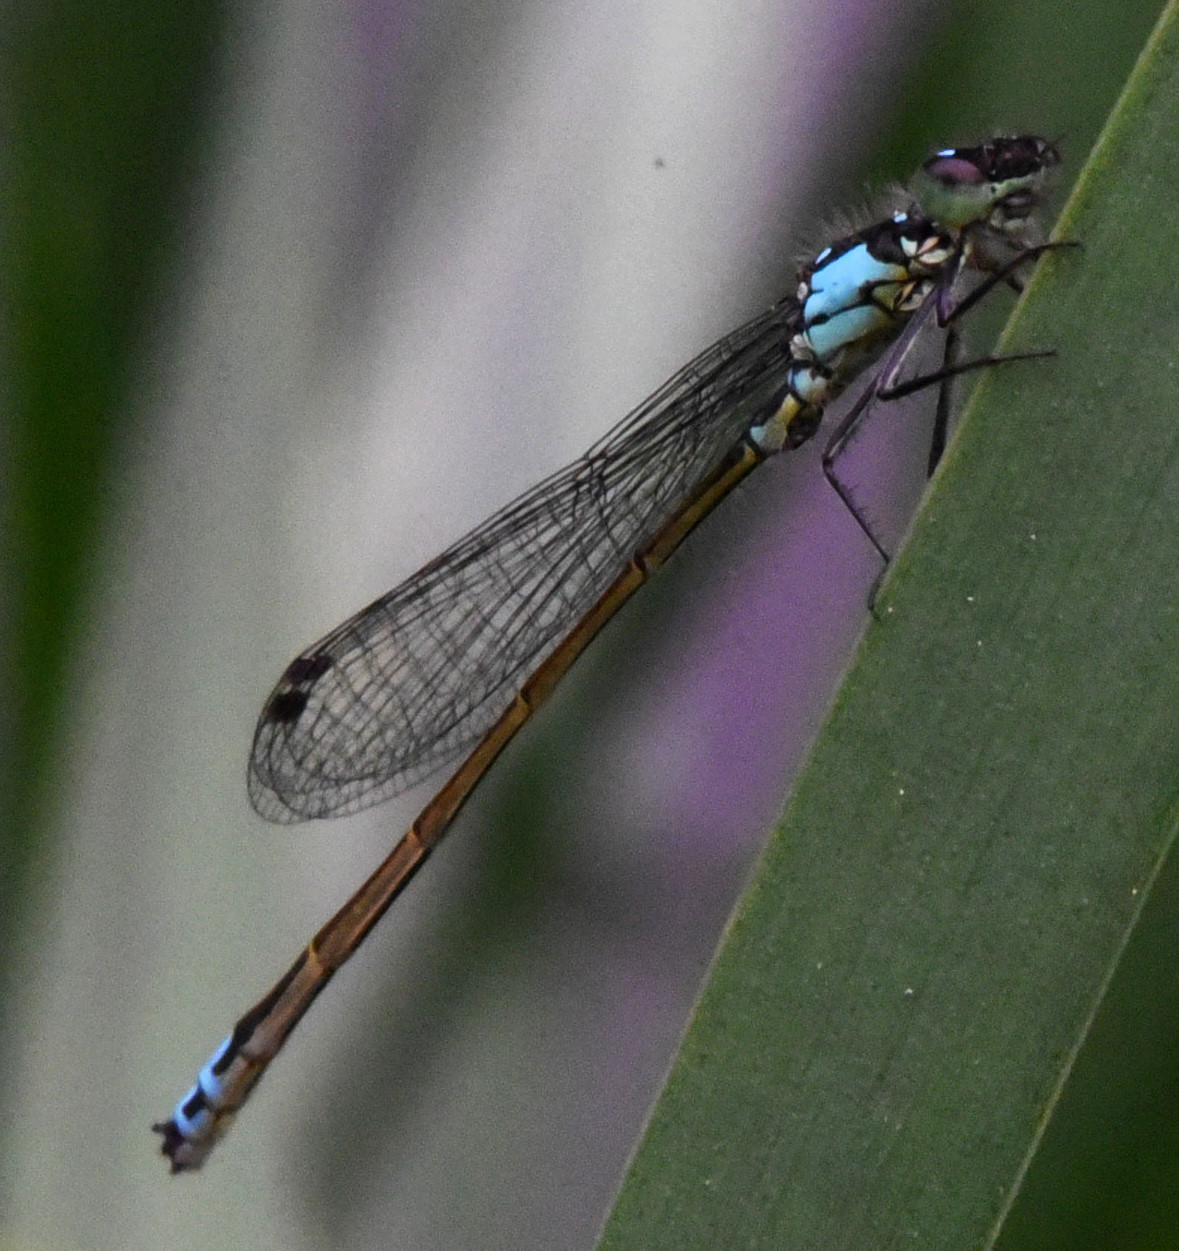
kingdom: Animalia
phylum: Arthropoda
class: Insecta
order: Odonata
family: Coenagrionidae
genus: Ischnura
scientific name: Ischnura cervula
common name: Pacific forktail
